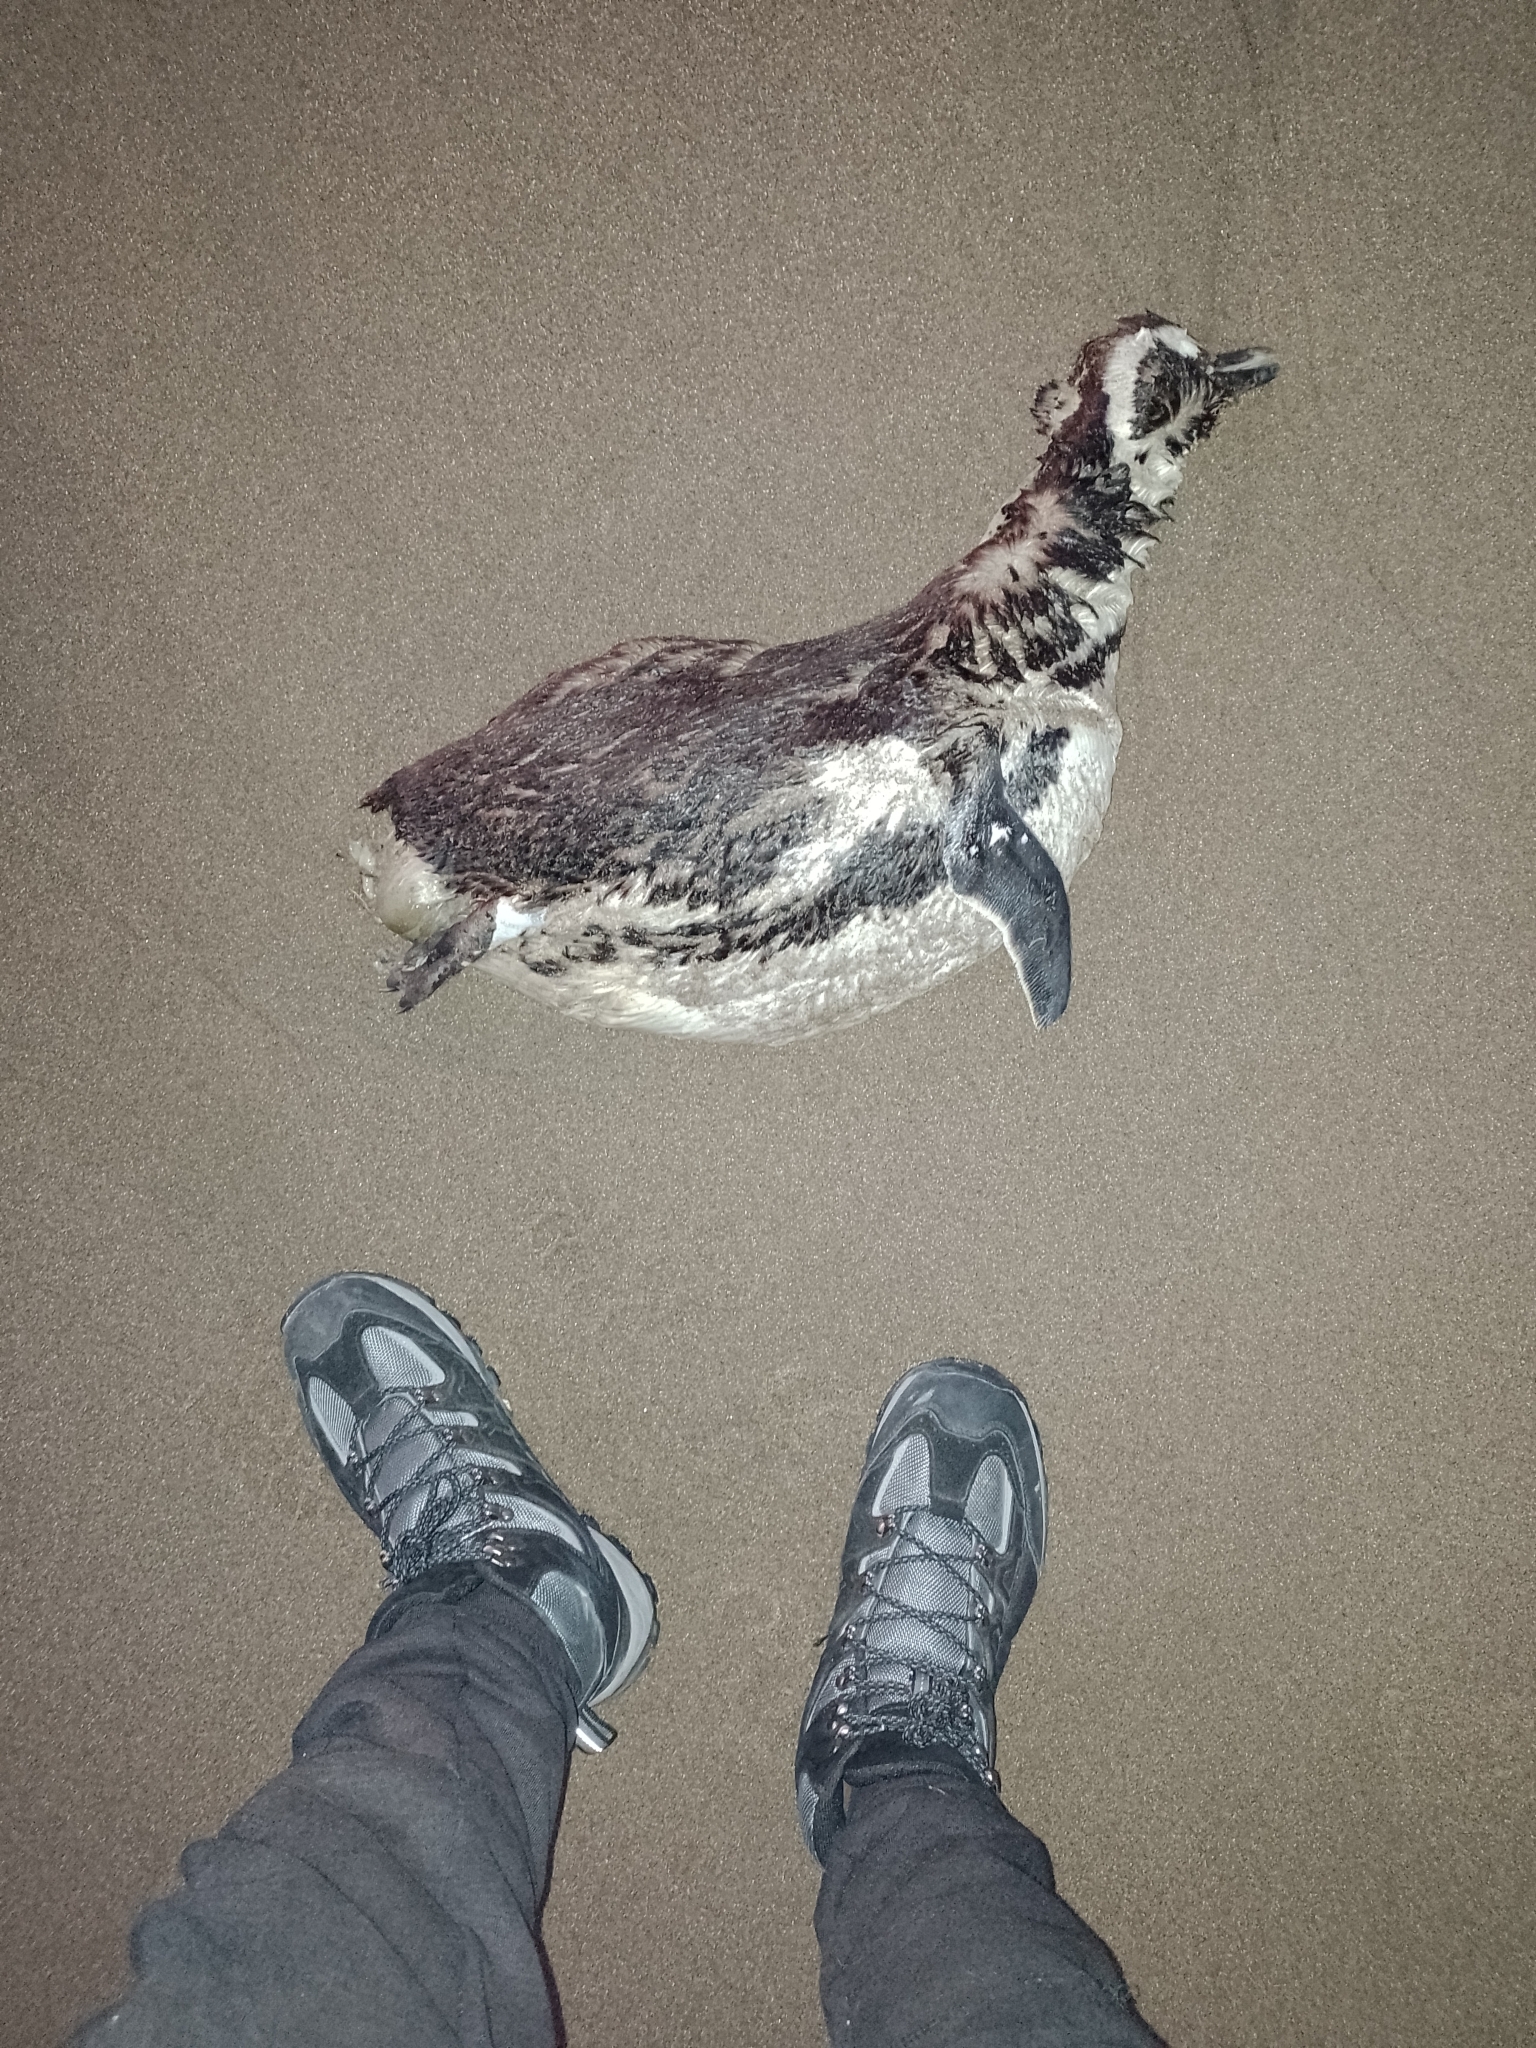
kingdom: Animalia
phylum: Chordata
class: Aves
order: Sphenisciformes
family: Spheniscidae
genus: Spheniscus
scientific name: Spheniscus magellanicus
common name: Magellanic penguin
